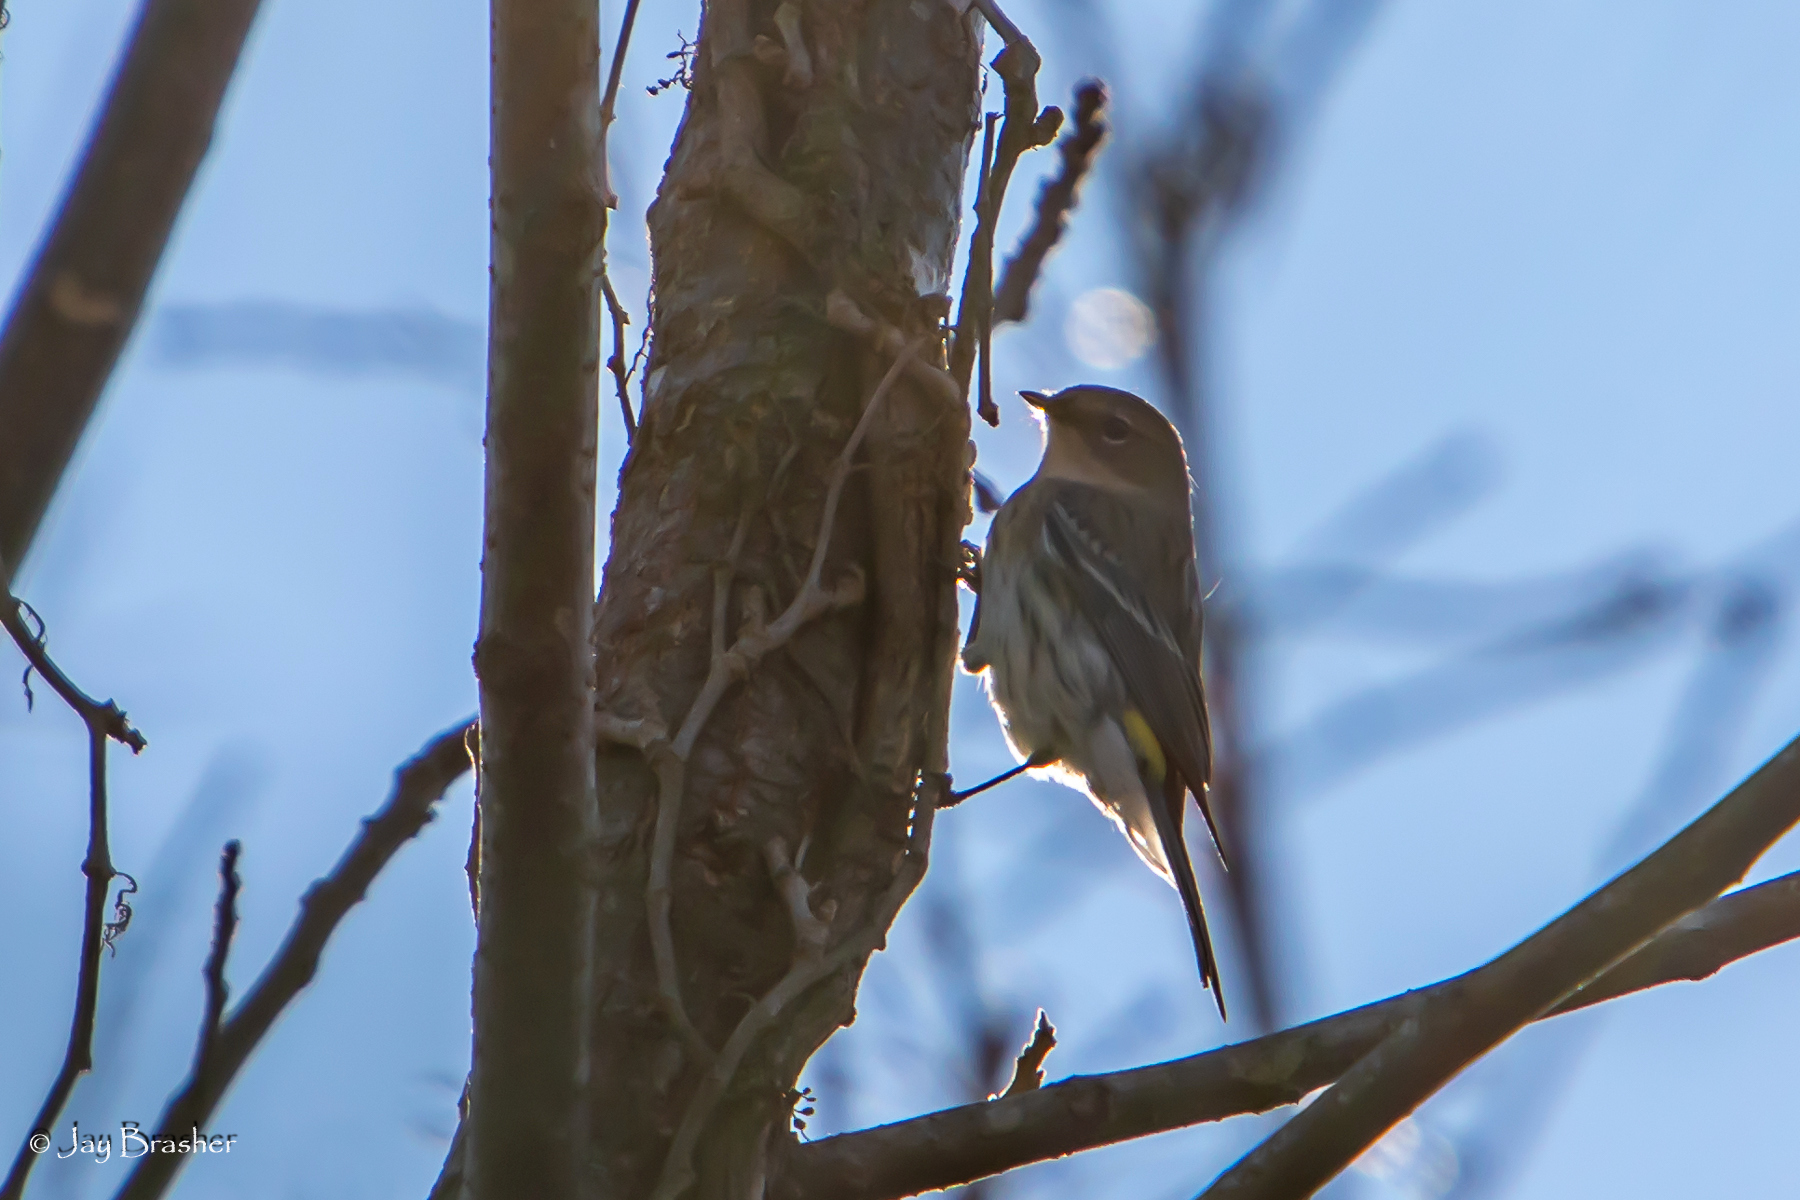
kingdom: Animalia
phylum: Chordata
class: Aves
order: Passeriformes
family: Parulidae
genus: Setophaga
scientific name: Setophaga coronata
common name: Myrtle warbler
